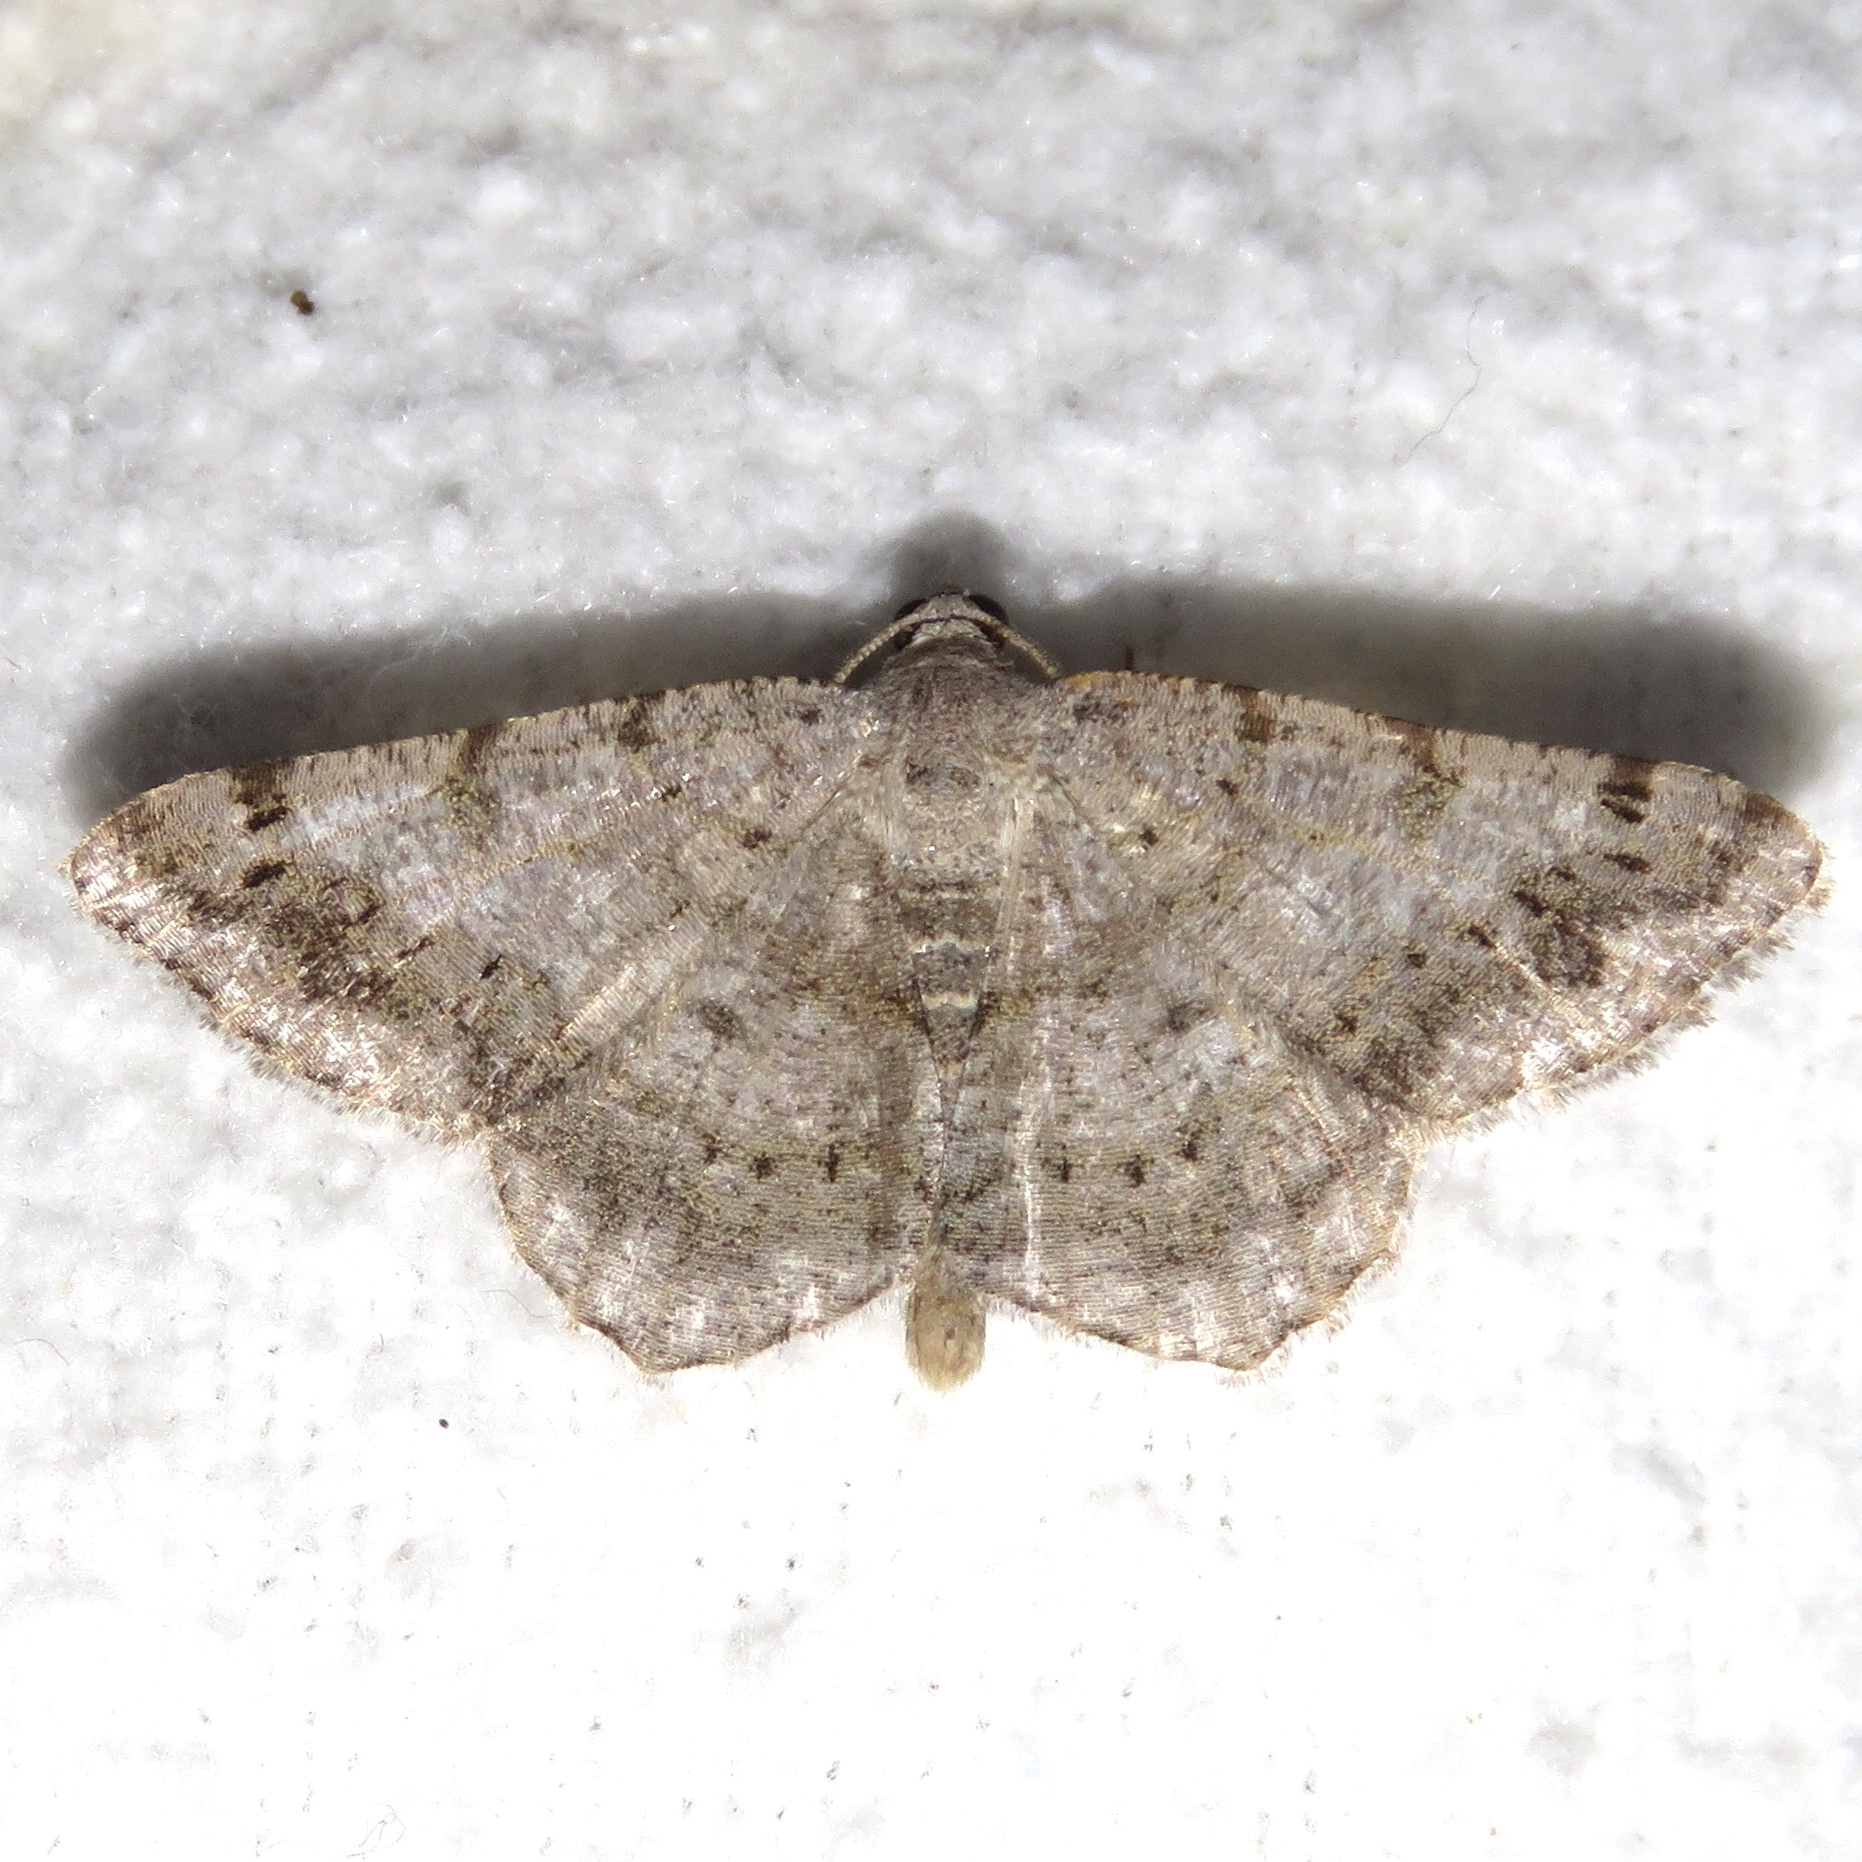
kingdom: Animalia
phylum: Arthropoda
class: Insecta
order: Lepidoptera
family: Geometridae
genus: Digrammia
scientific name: Digrammia ocellinata
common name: Faint-spotted angle
